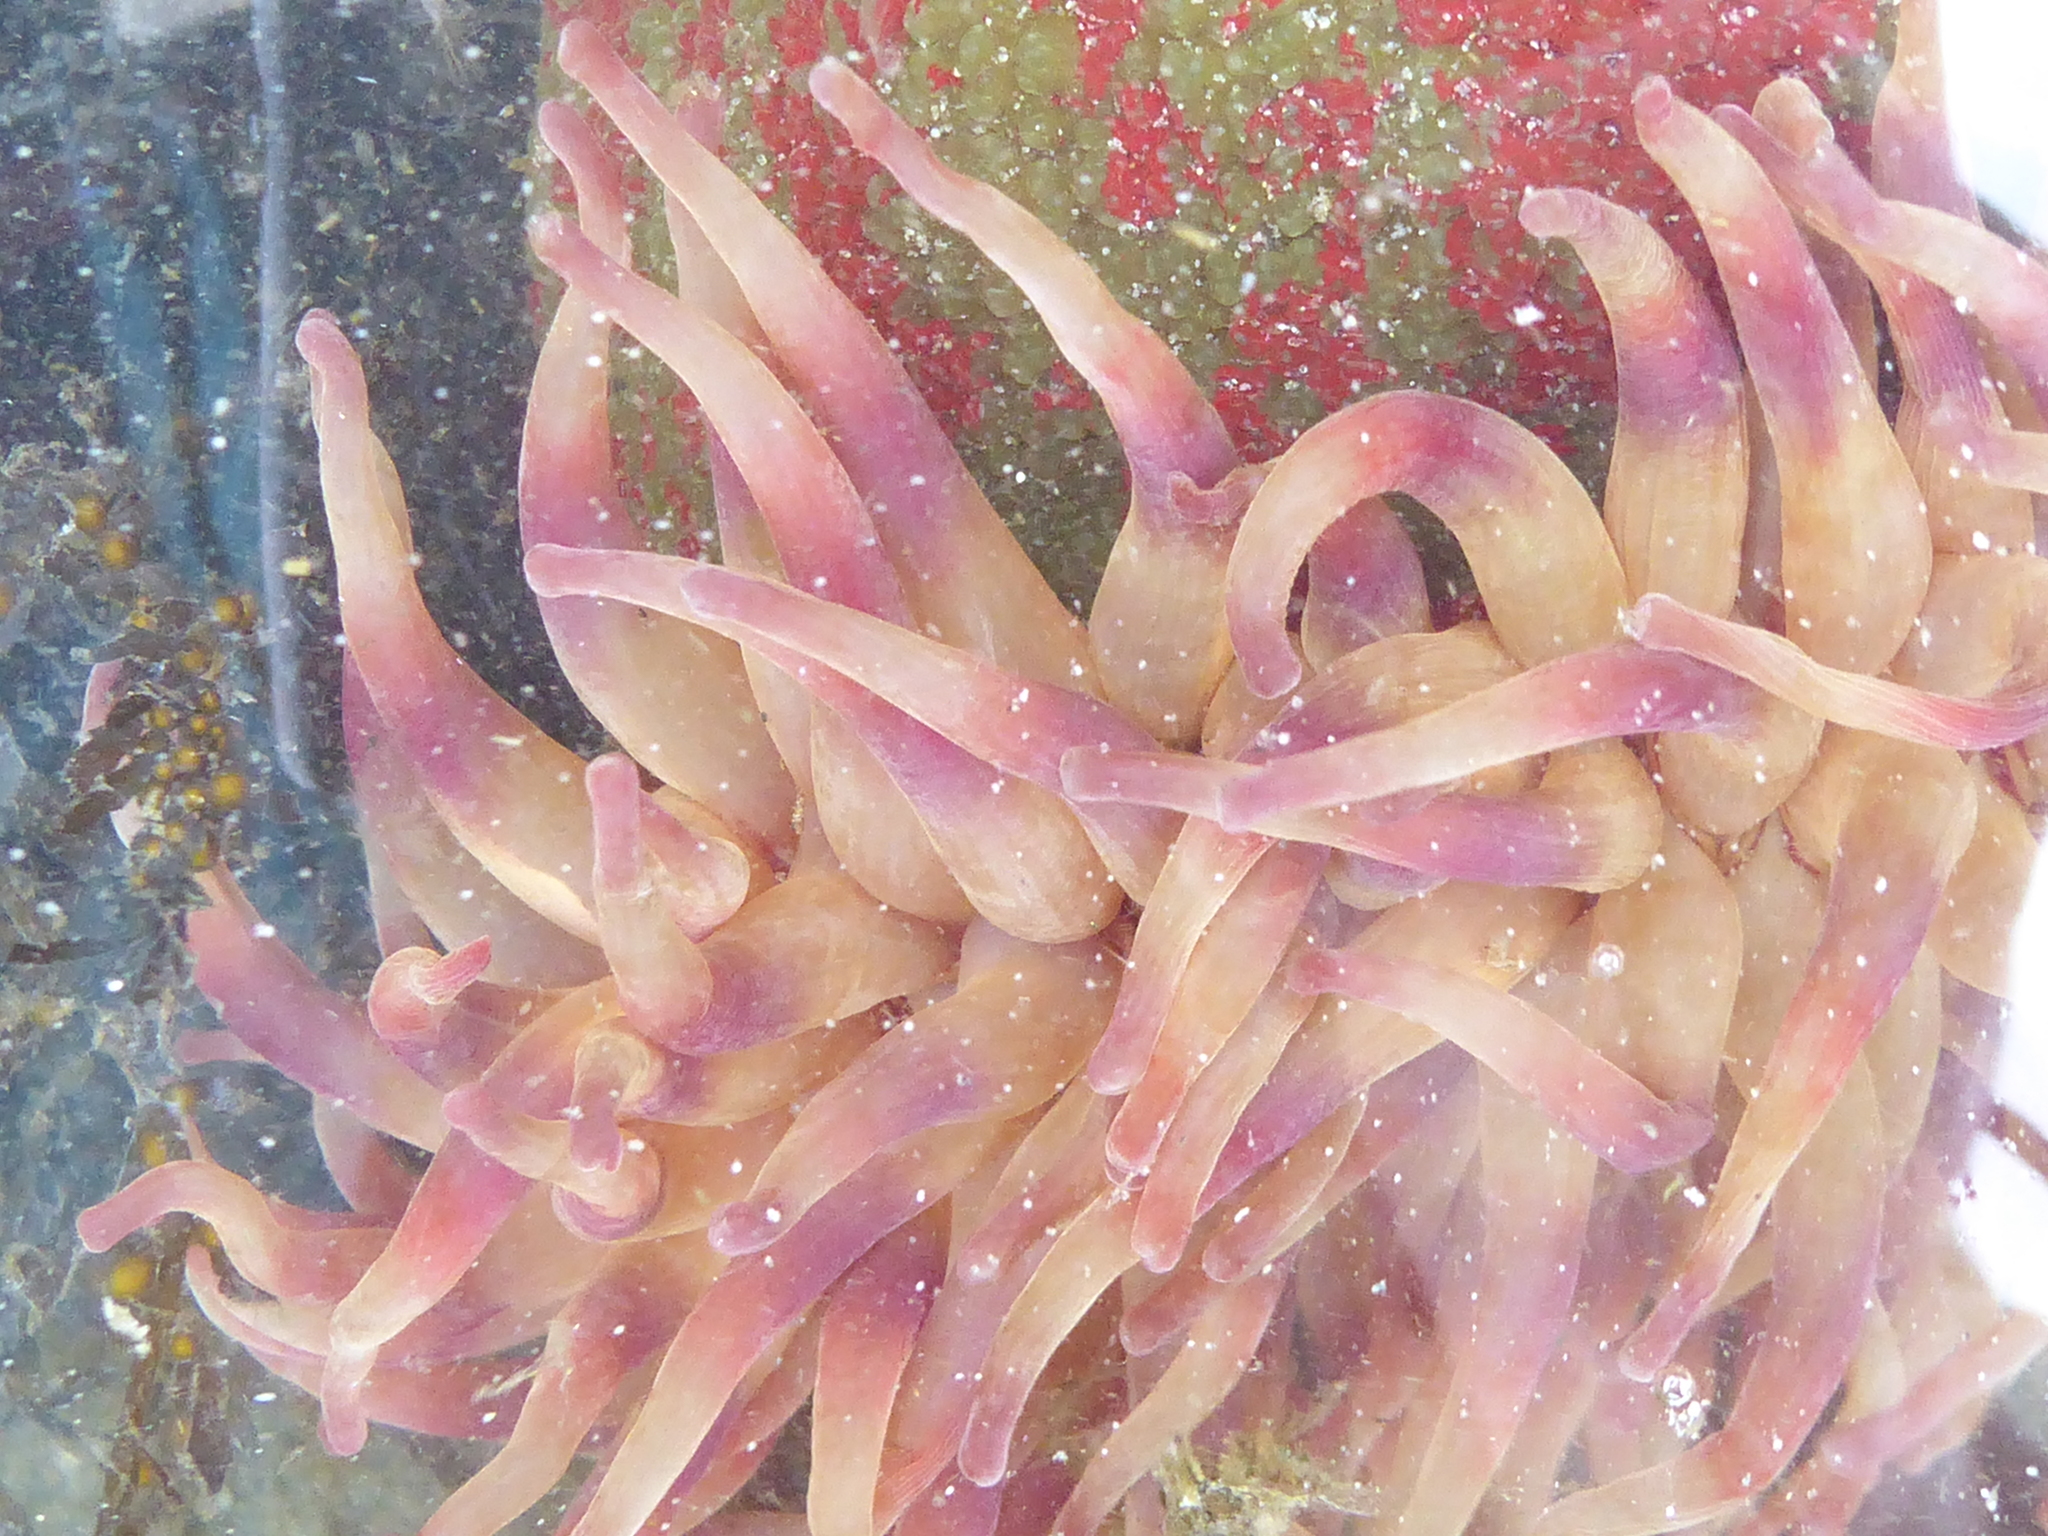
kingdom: Animalia
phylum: Cnidaria
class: Anthozoa
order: Actiniaria
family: Actiniidae
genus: Urticina
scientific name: Urticina grebelnyi
